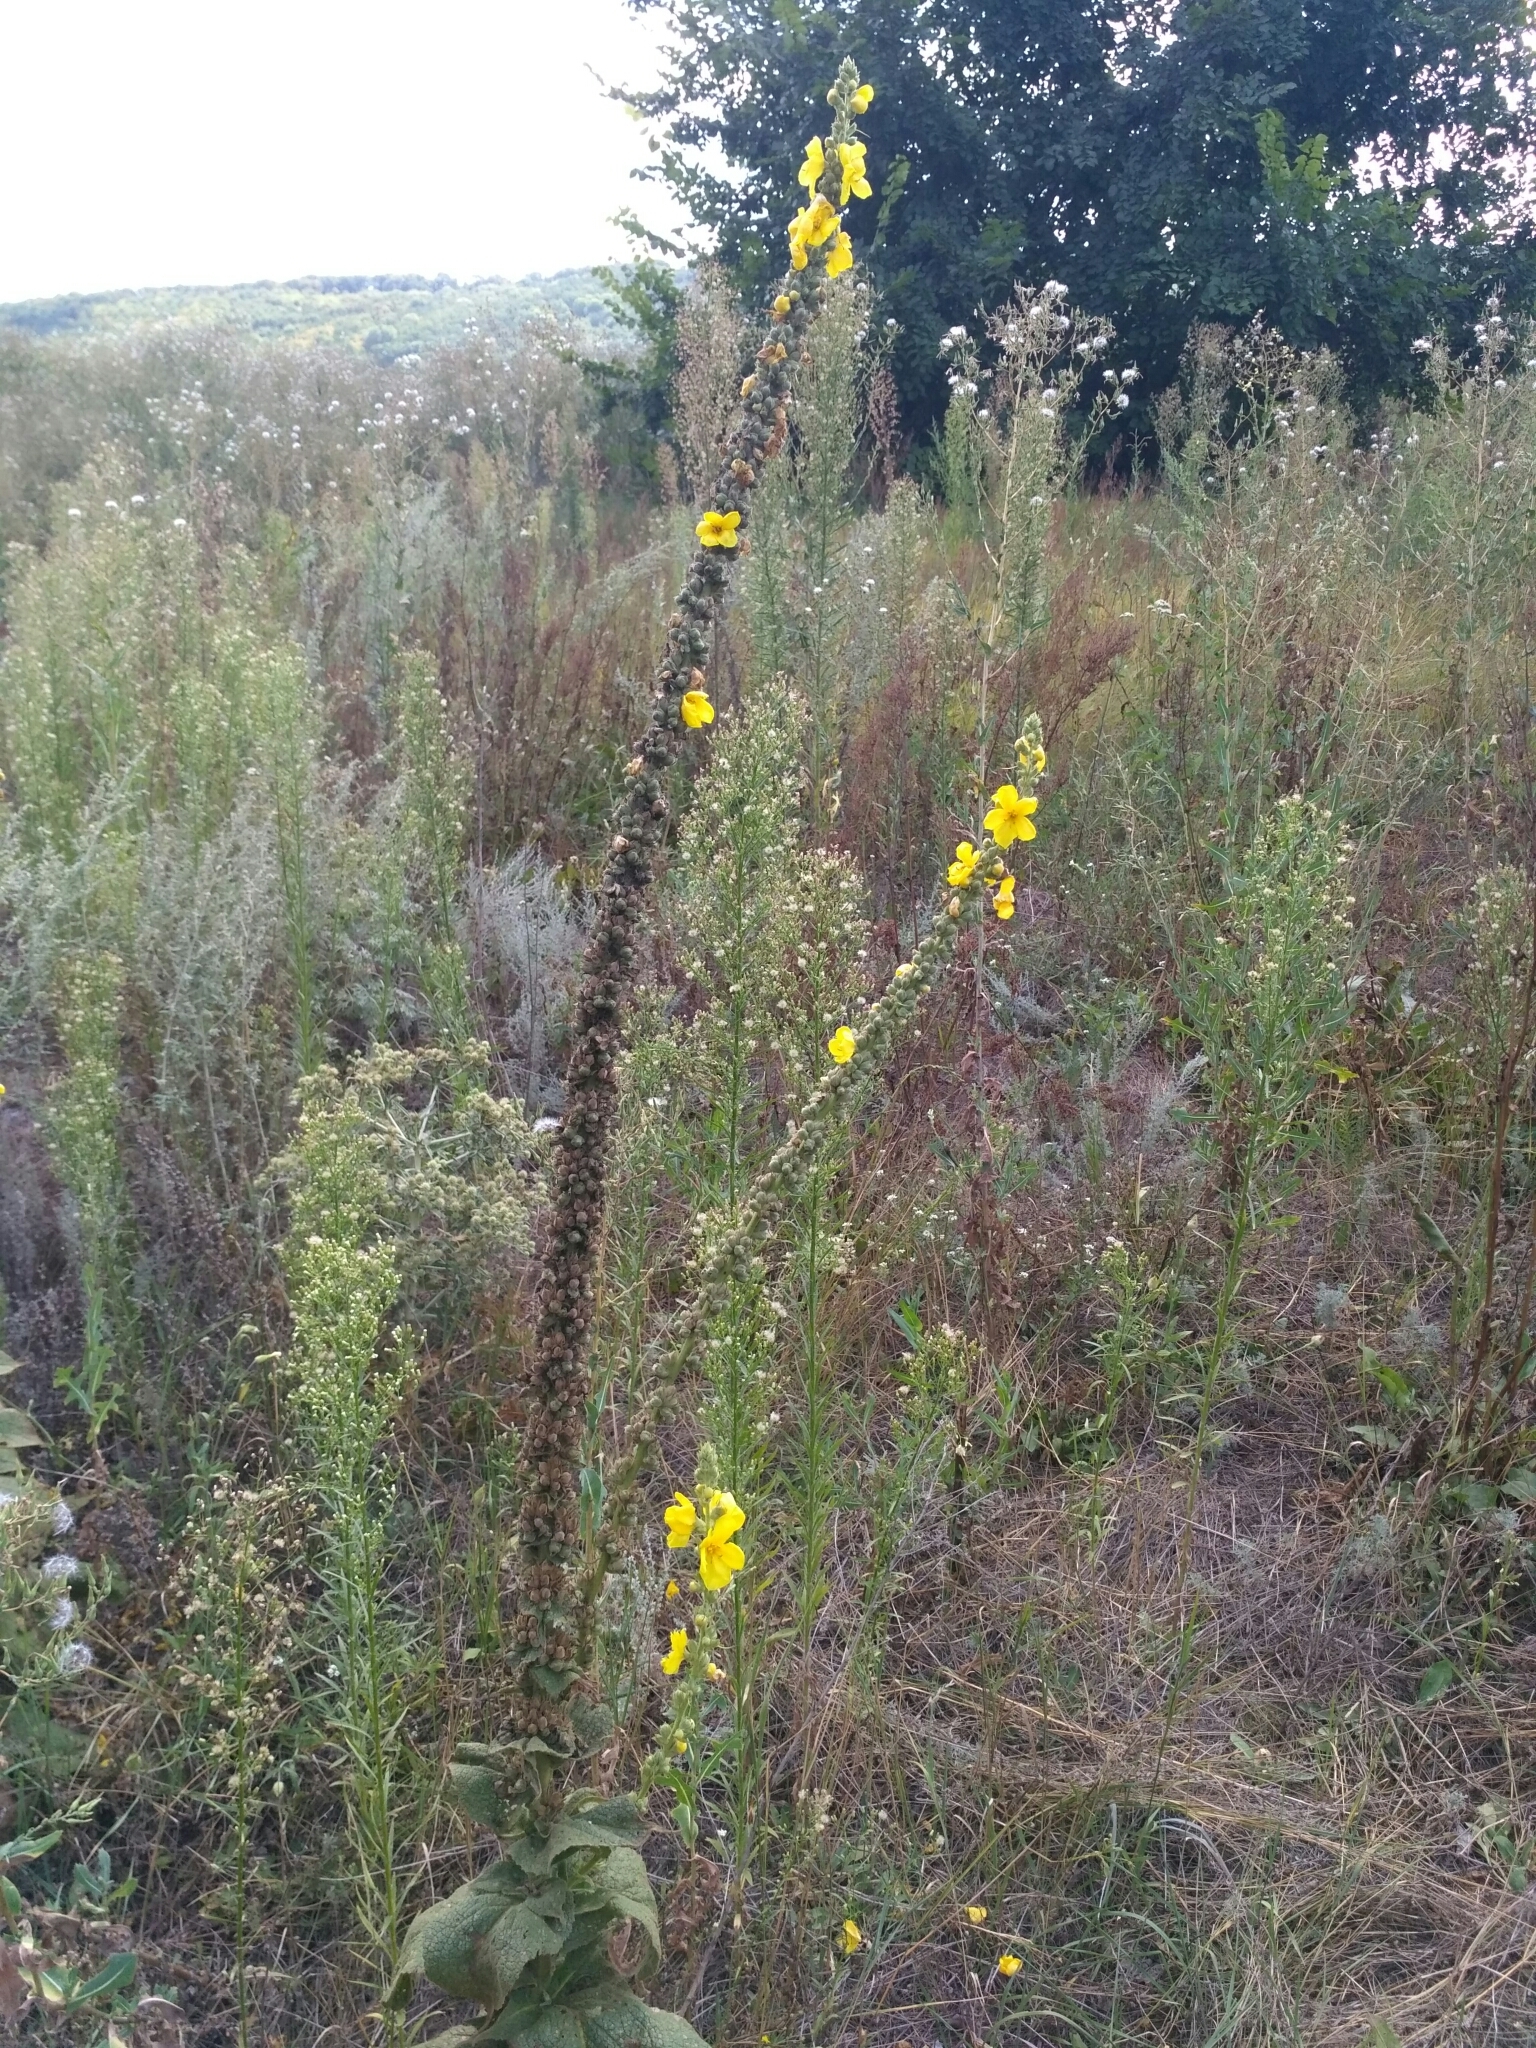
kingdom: Plantae
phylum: Tracheophyta
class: Magnoliopsida
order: Lamiales
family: Scrophulariaceae
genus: Verbascum
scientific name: Verbascum phlomoides
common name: Orange mullein
